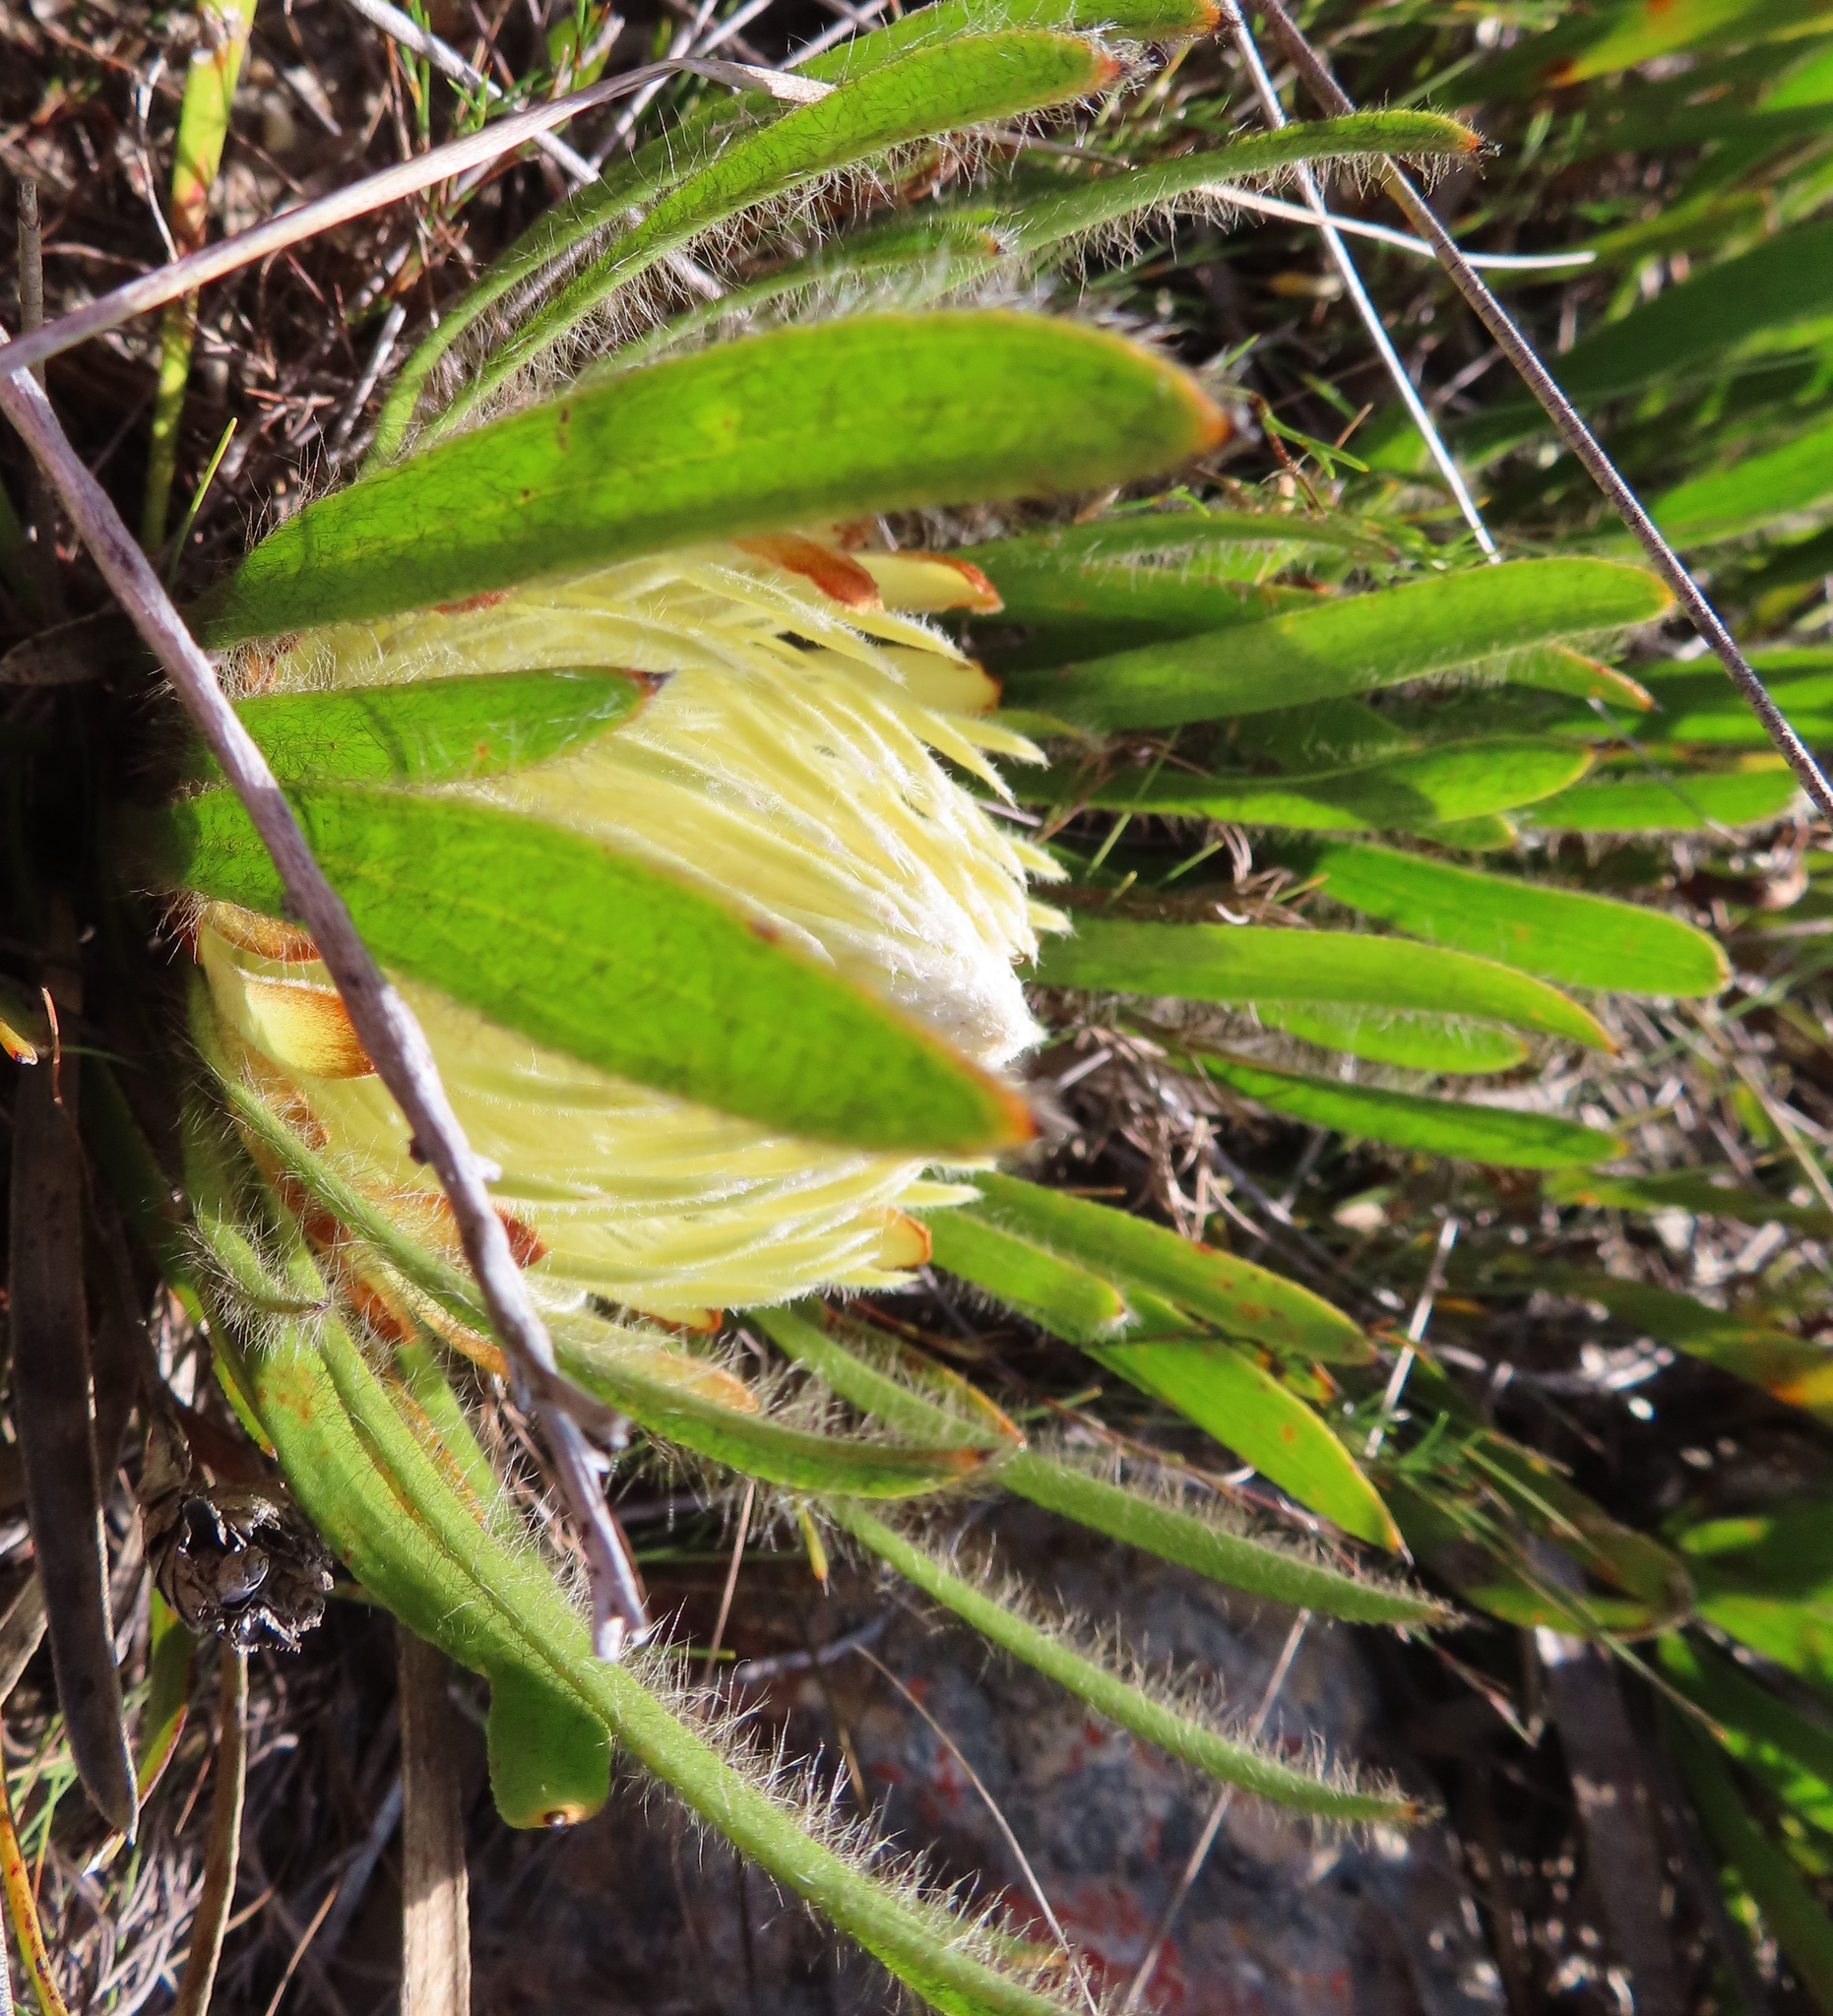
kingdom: Plantae
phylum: Tracheophyta
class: Magnoliopsida
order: Proteales
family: Proteaceae
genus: Protea
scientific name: Protea aspera
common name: Rough-leaf sugarbush
